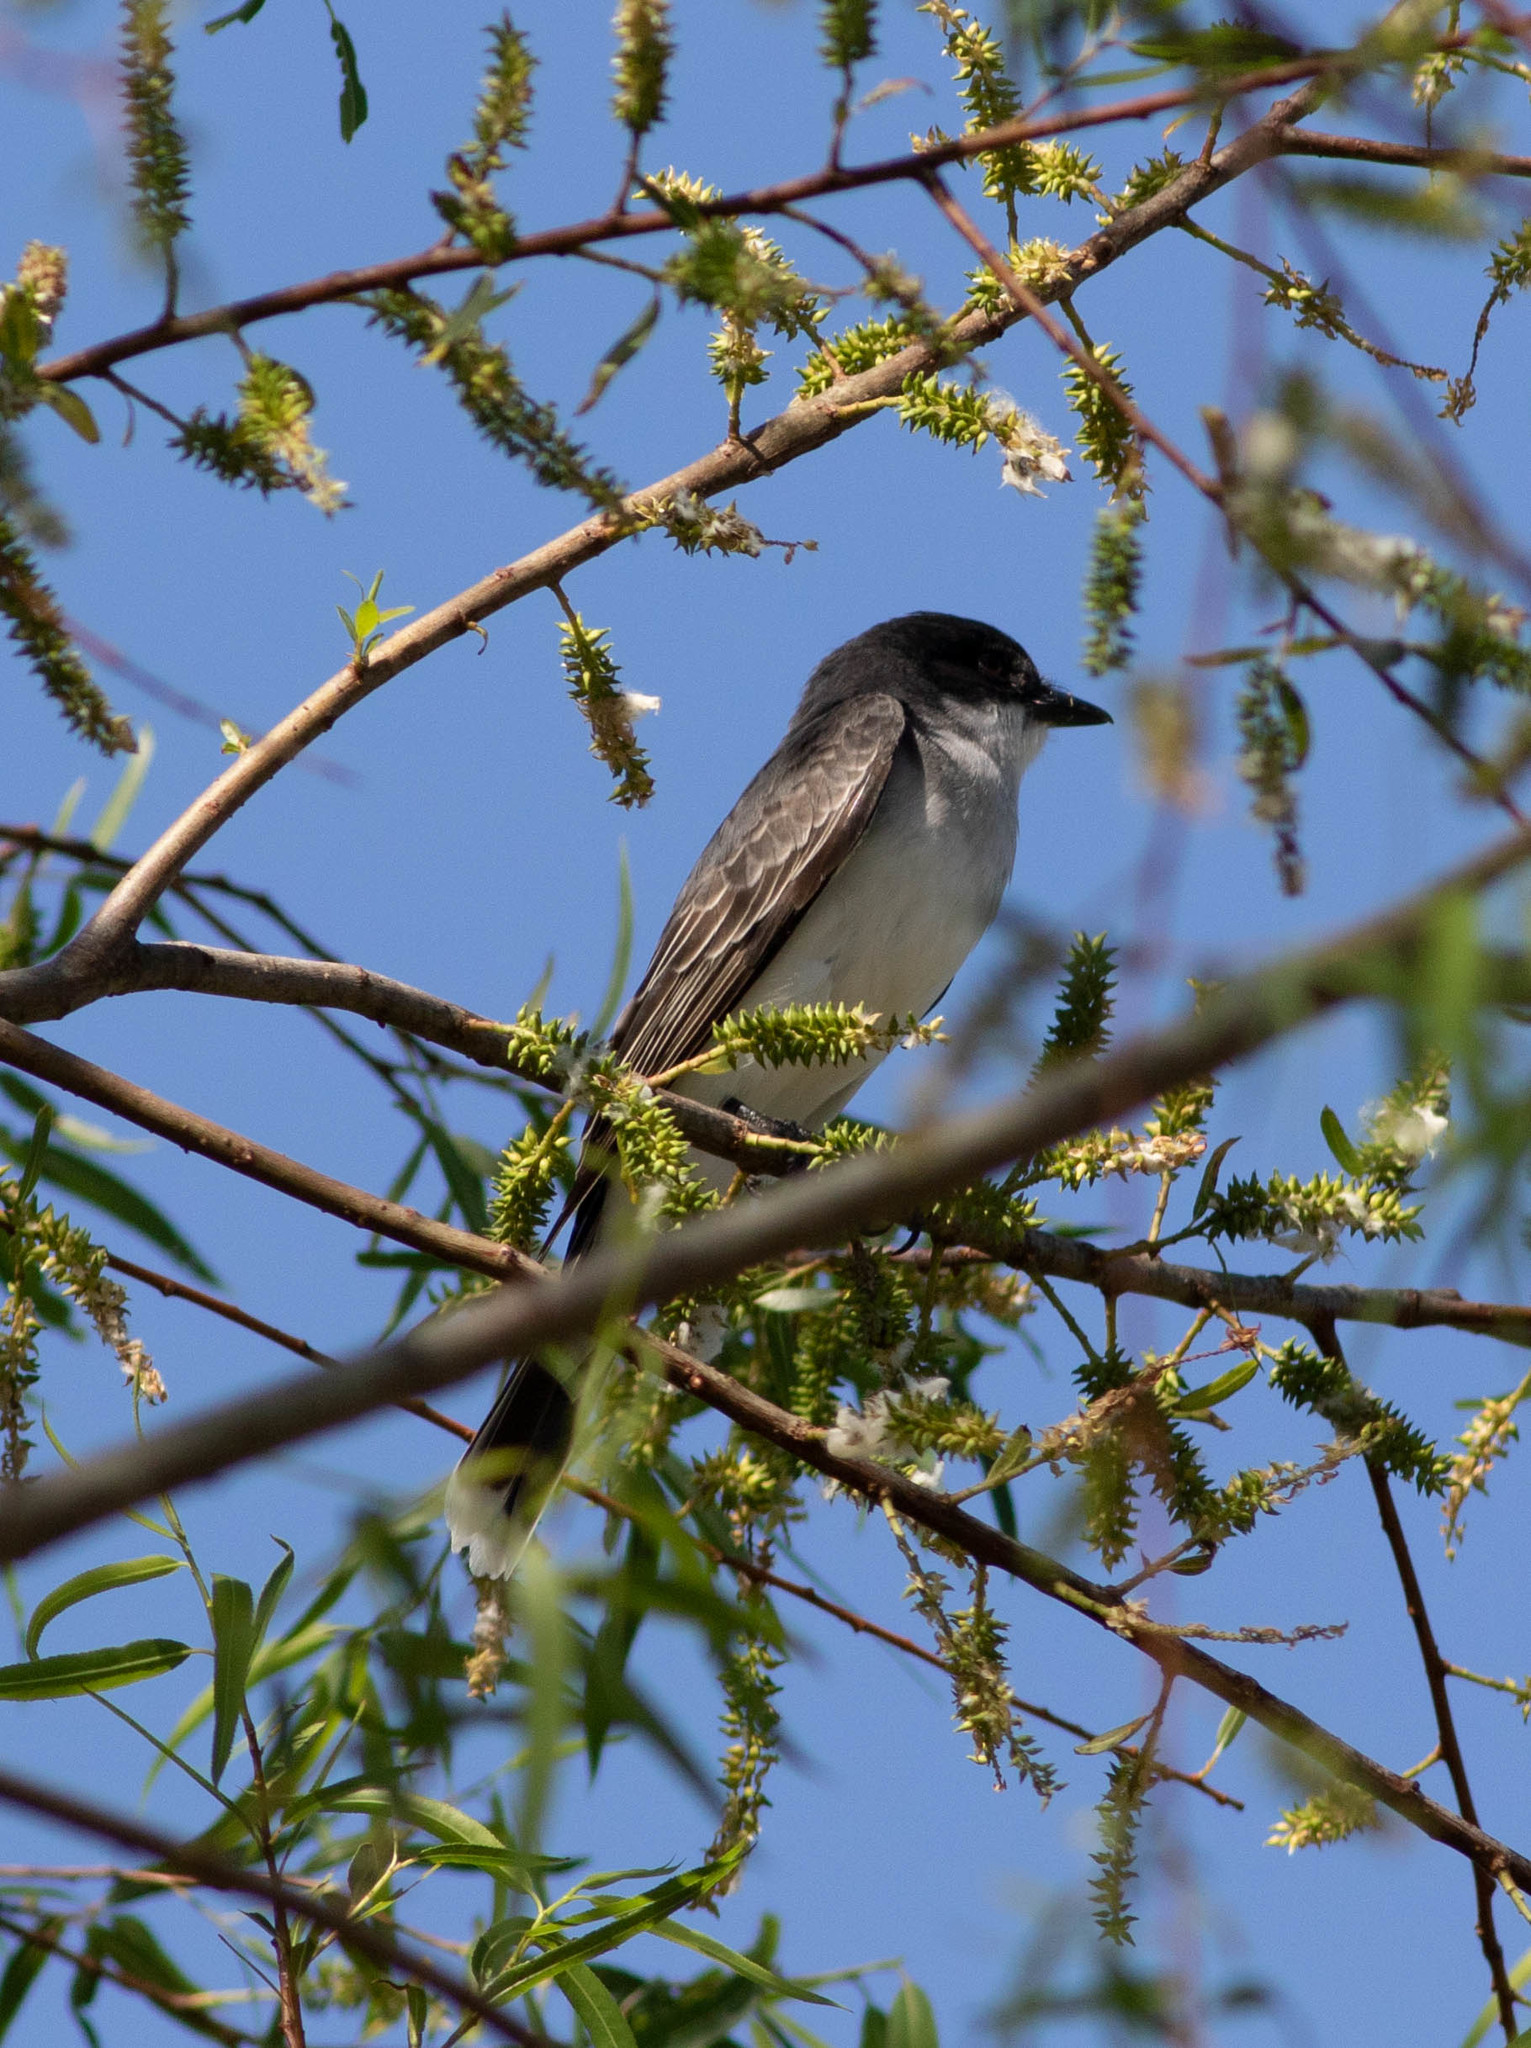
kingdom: Animalia
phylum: Chordata
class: Aves
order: Passeriformes
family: Tyrannidae
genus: Tyrannus
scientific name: Tyrannus tyrannus
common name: Eastern kingbird
